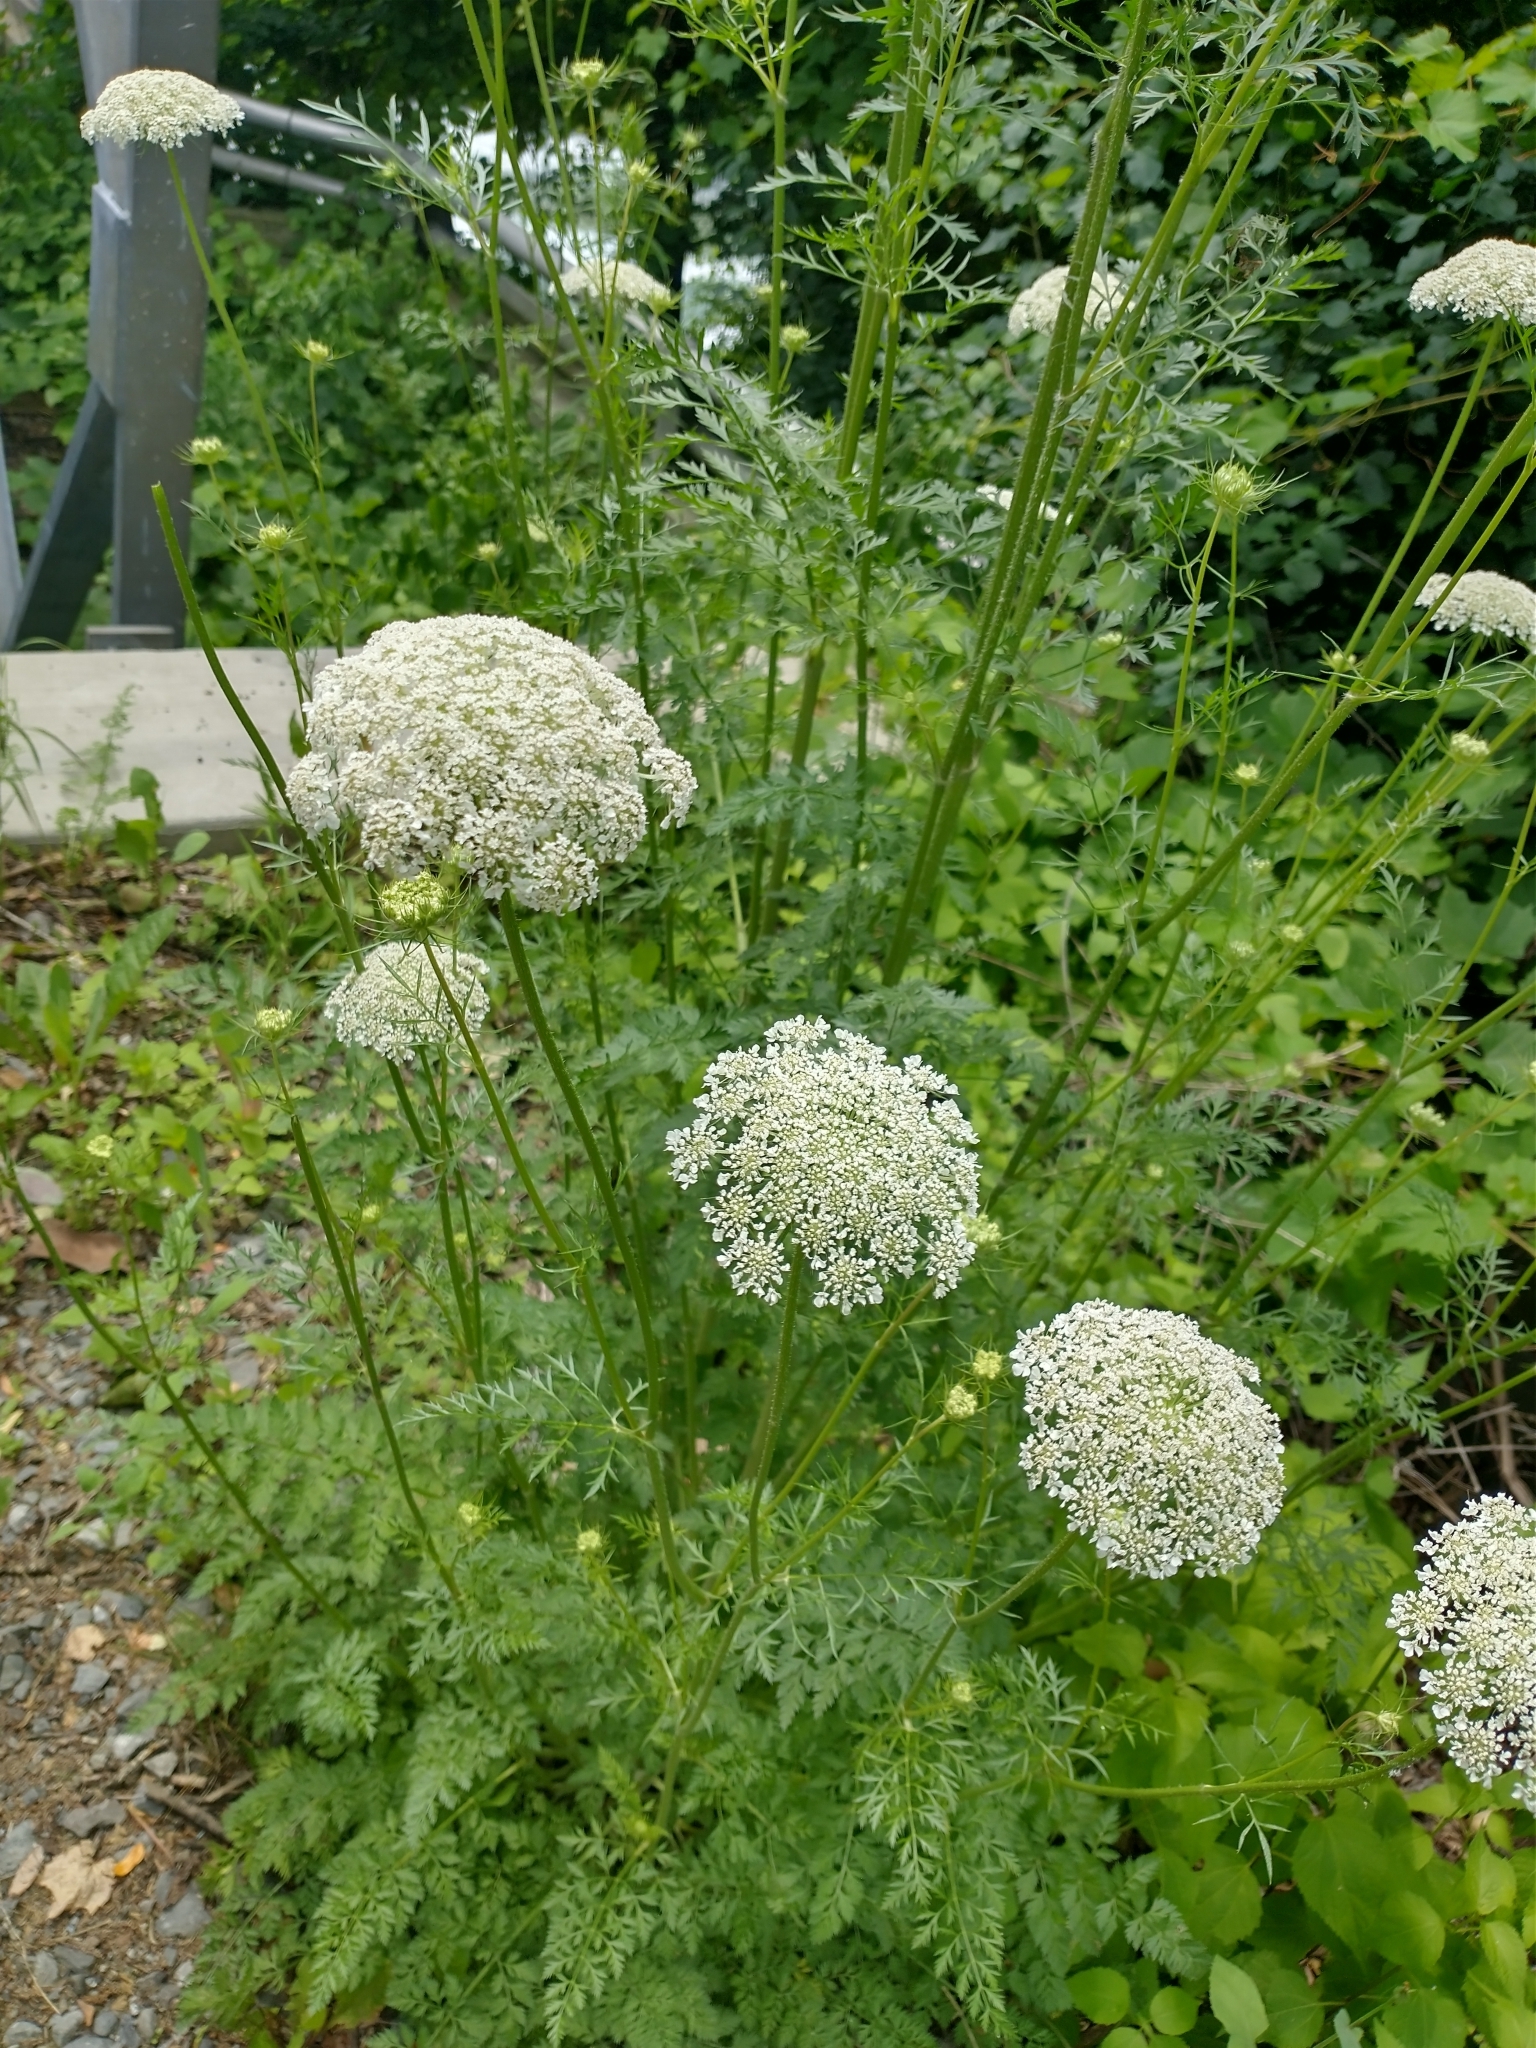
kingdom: Plantae
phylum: Tracheophyta
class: Magnoliopsida
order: Apiales
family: Apiaceae
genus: Daucus
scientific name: Daucus carota
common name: Wild carrot
